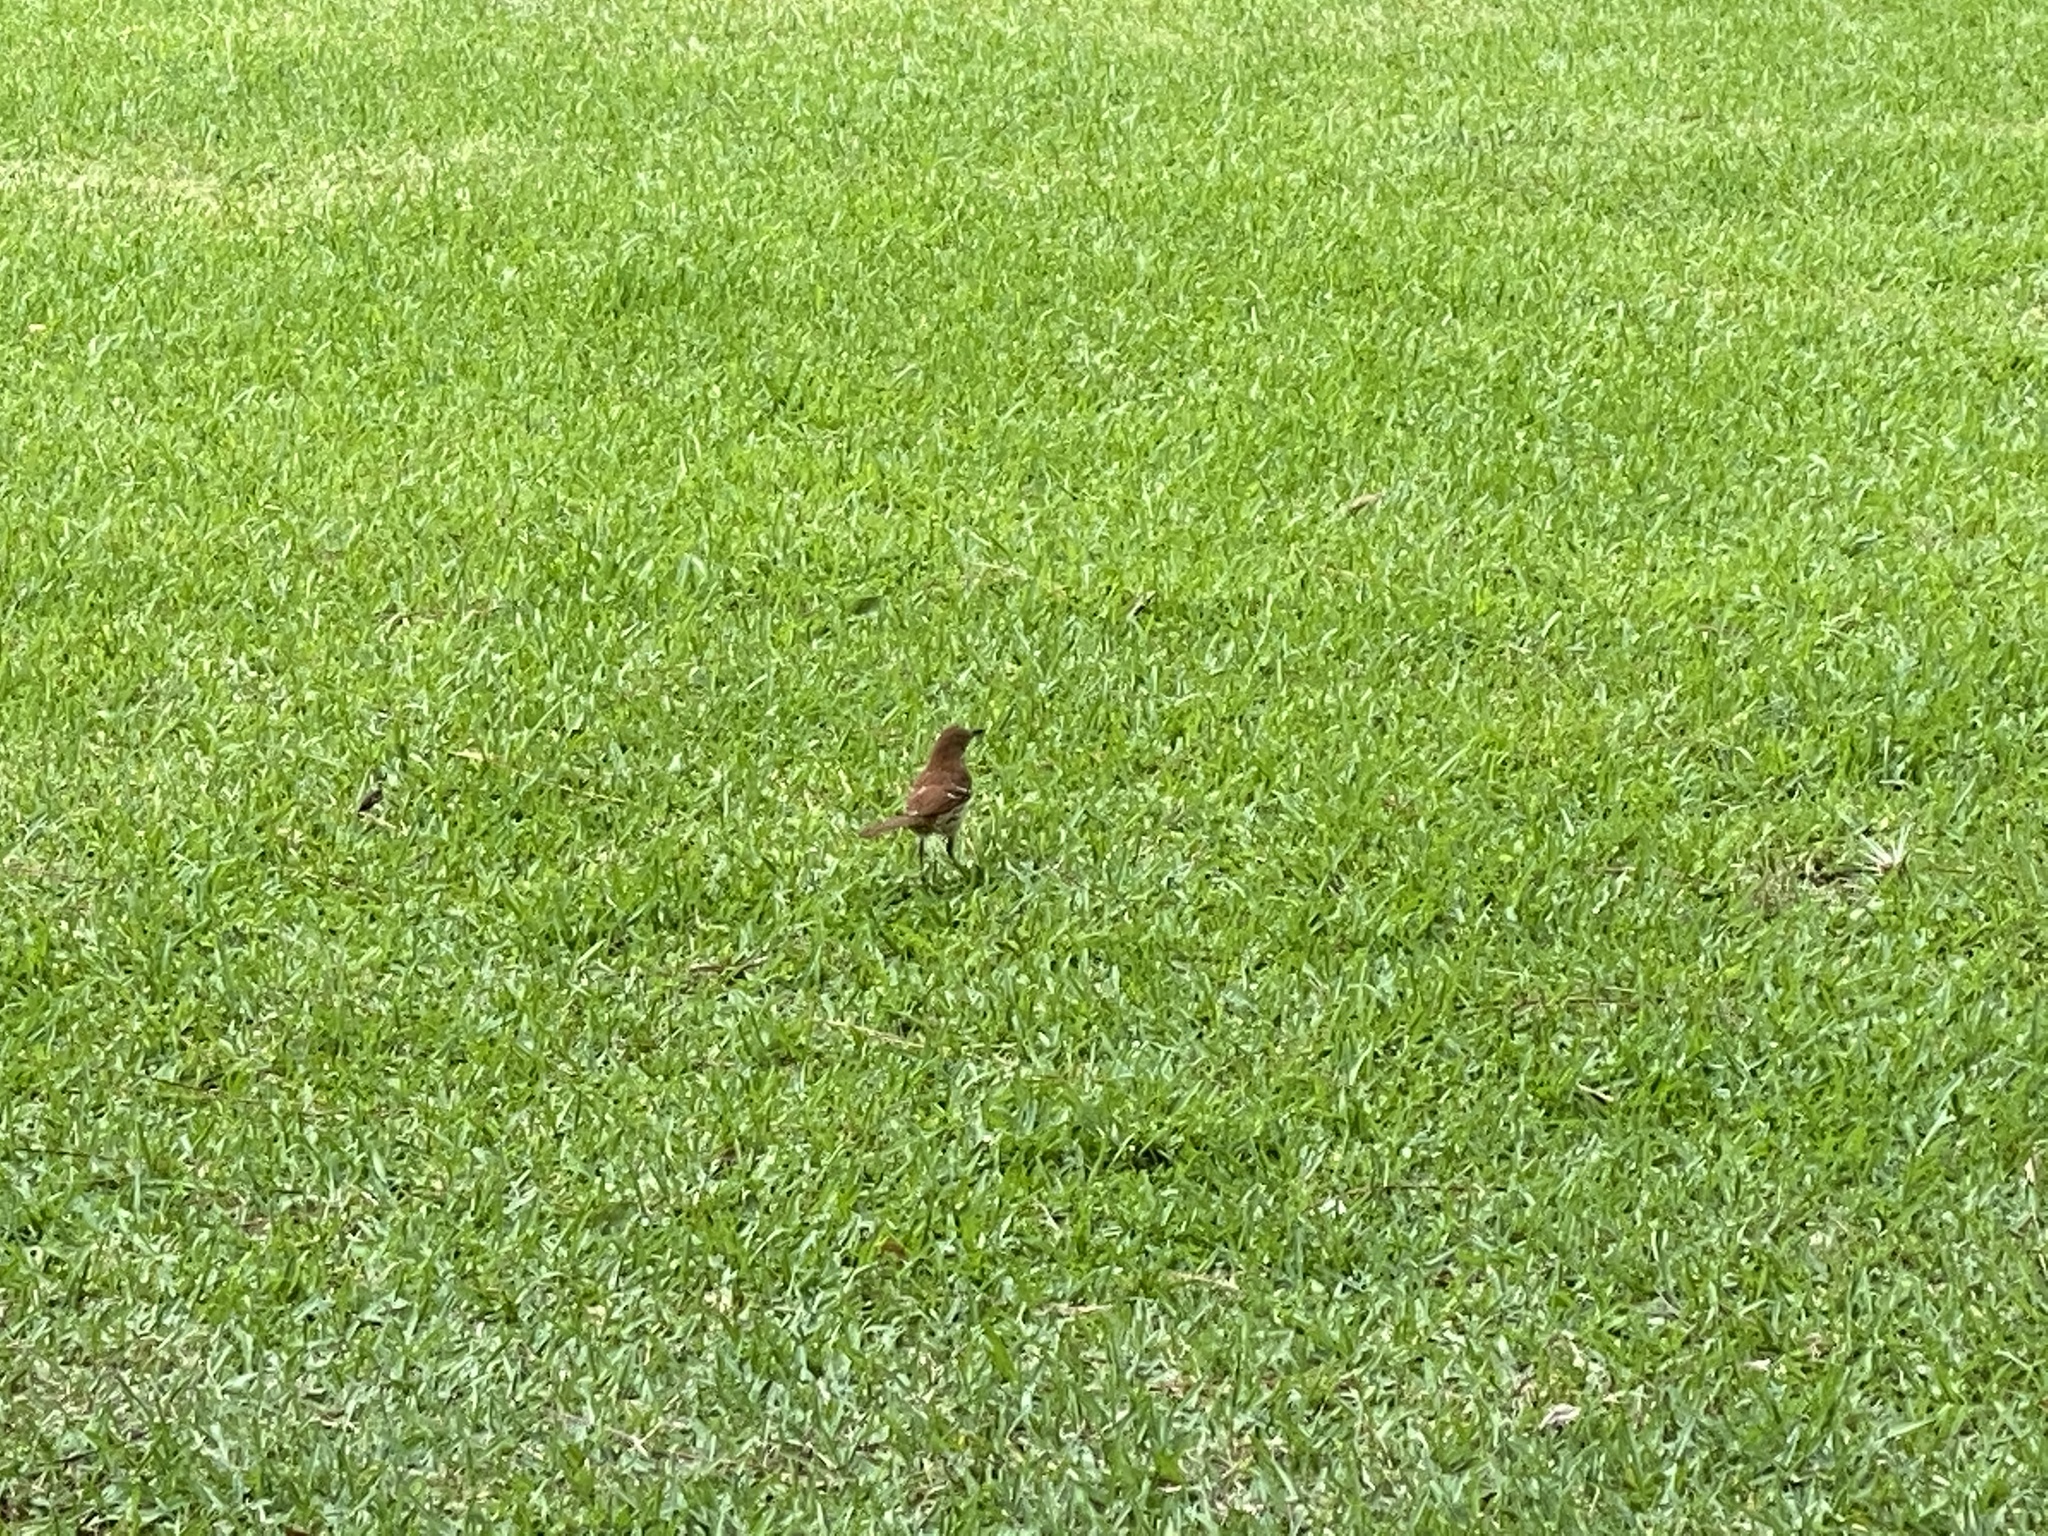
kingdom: Animalia
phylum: Chordata
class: Aves
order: Passeriformes
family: Mimidae
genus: Toxostoma
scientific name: Toxostoma rufum
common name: Brown thrasher
